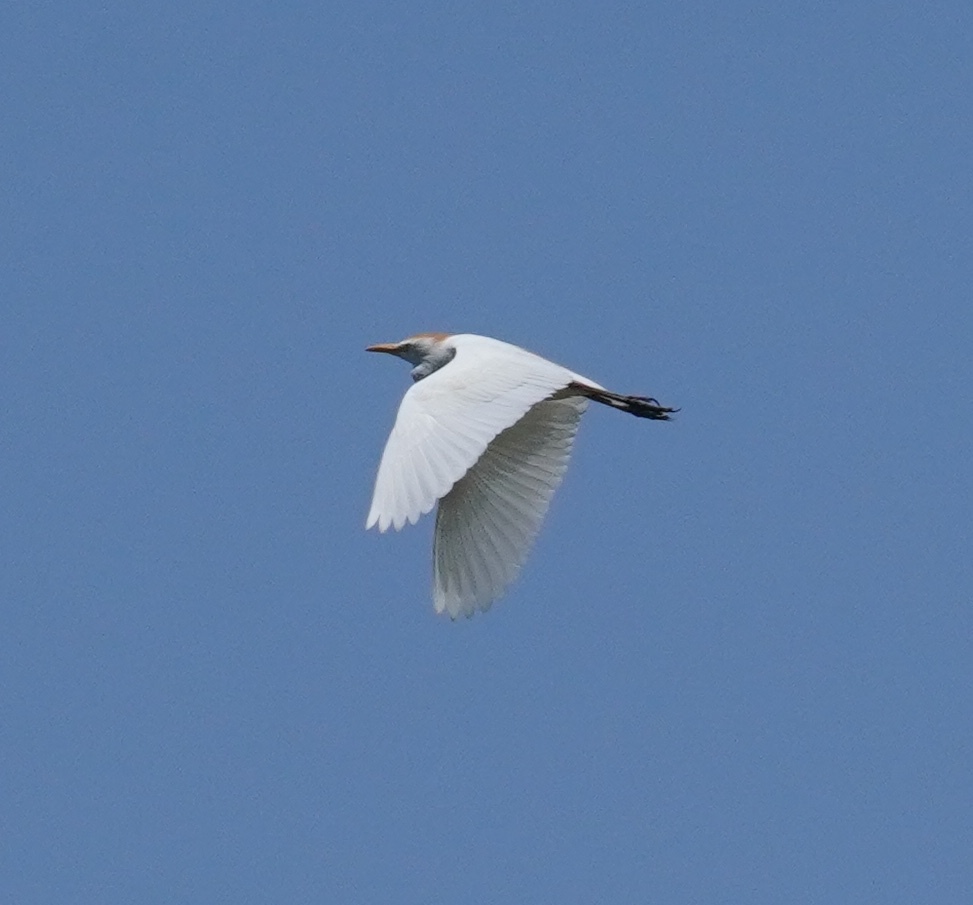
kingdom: Animalia
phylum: Chordata
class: Aves
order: Pelecaniformes
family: Ardeidae
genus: Bubulcus
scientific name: Bubulcus ibis
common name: Cattle egret
